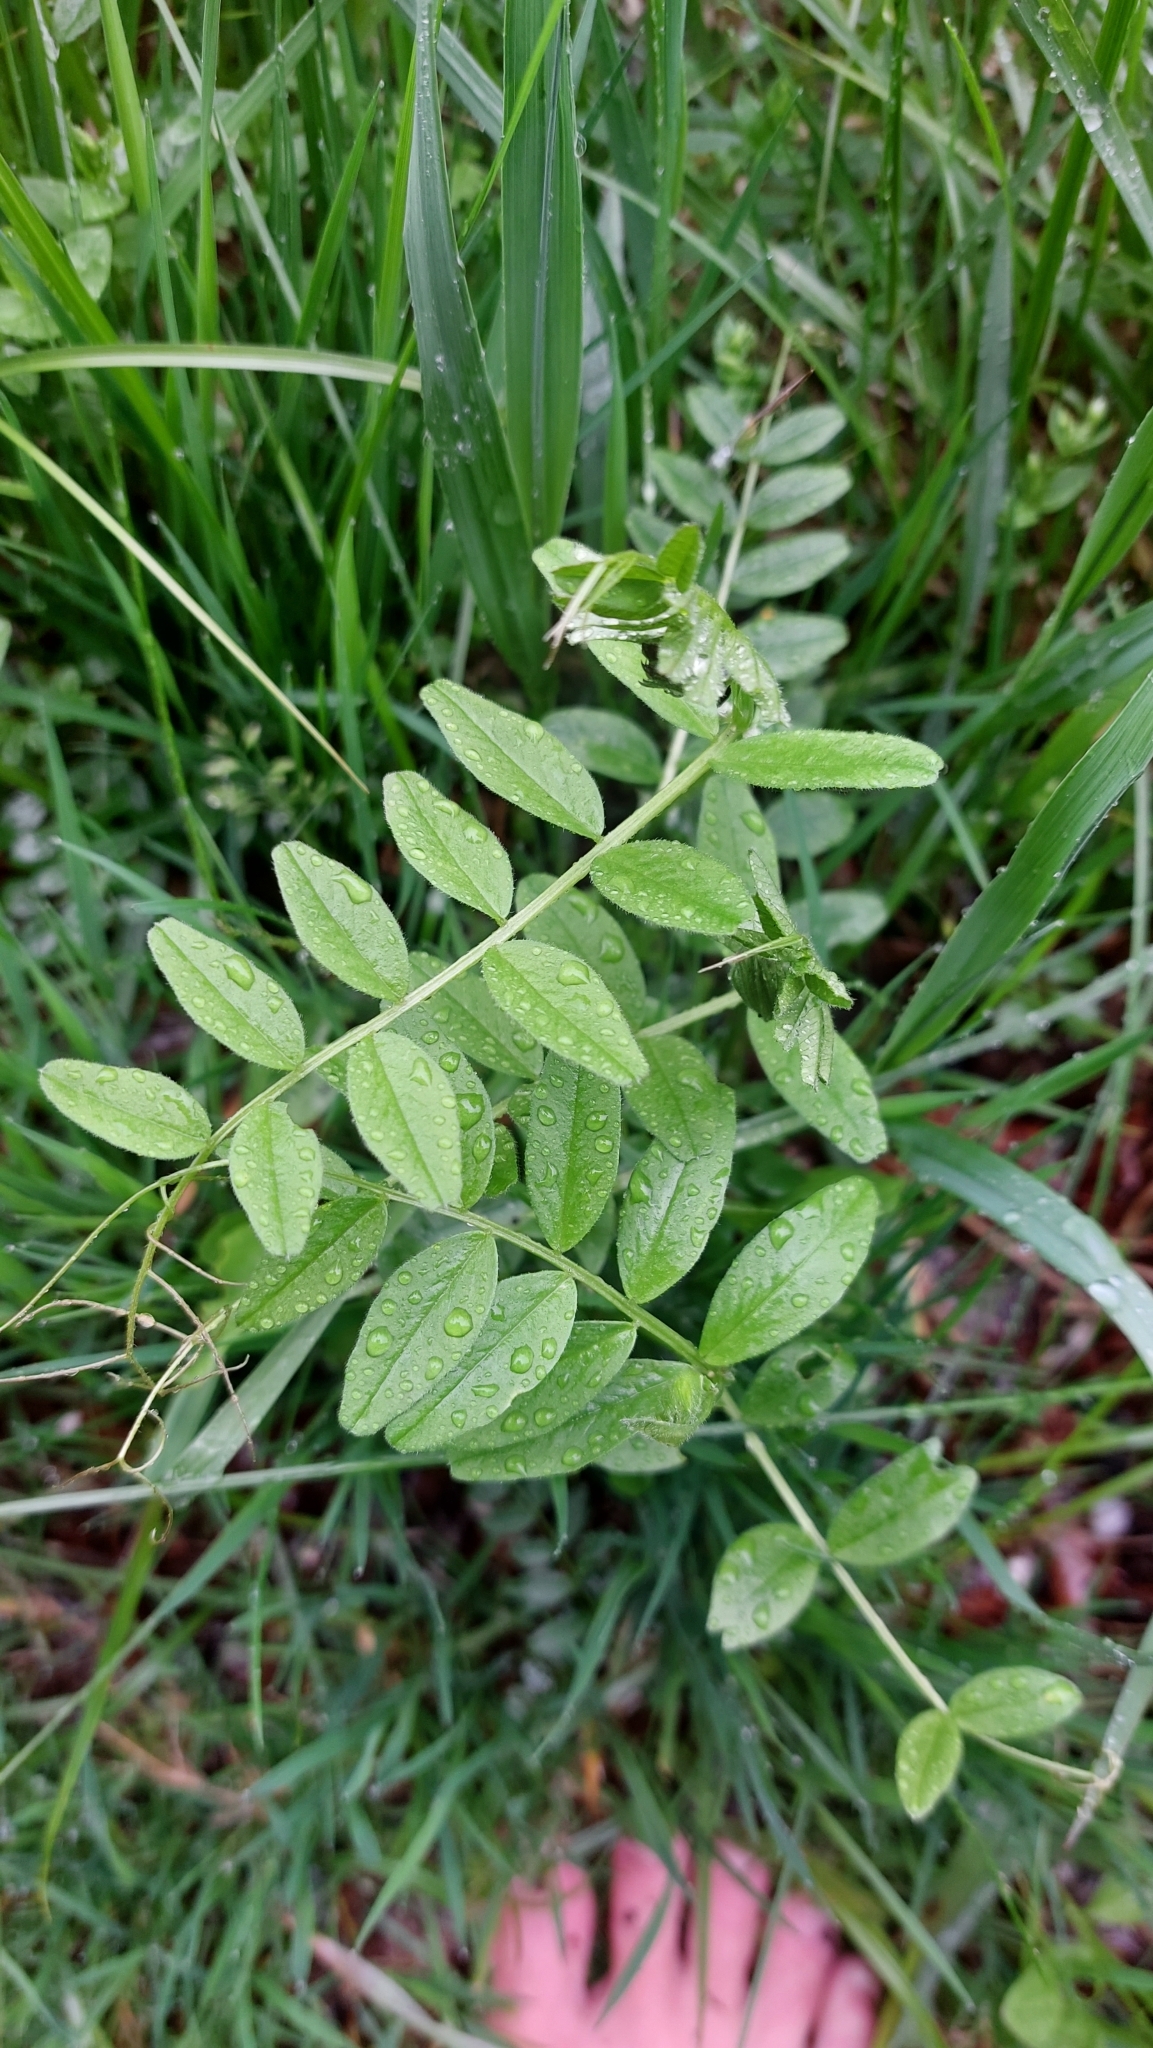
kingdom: Plantae
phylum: Tracheophyta
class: Magnoliopsida
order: Fabales
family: Fabaceae
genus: Vicia
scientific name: Vicia sepium
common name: Bush vetch
